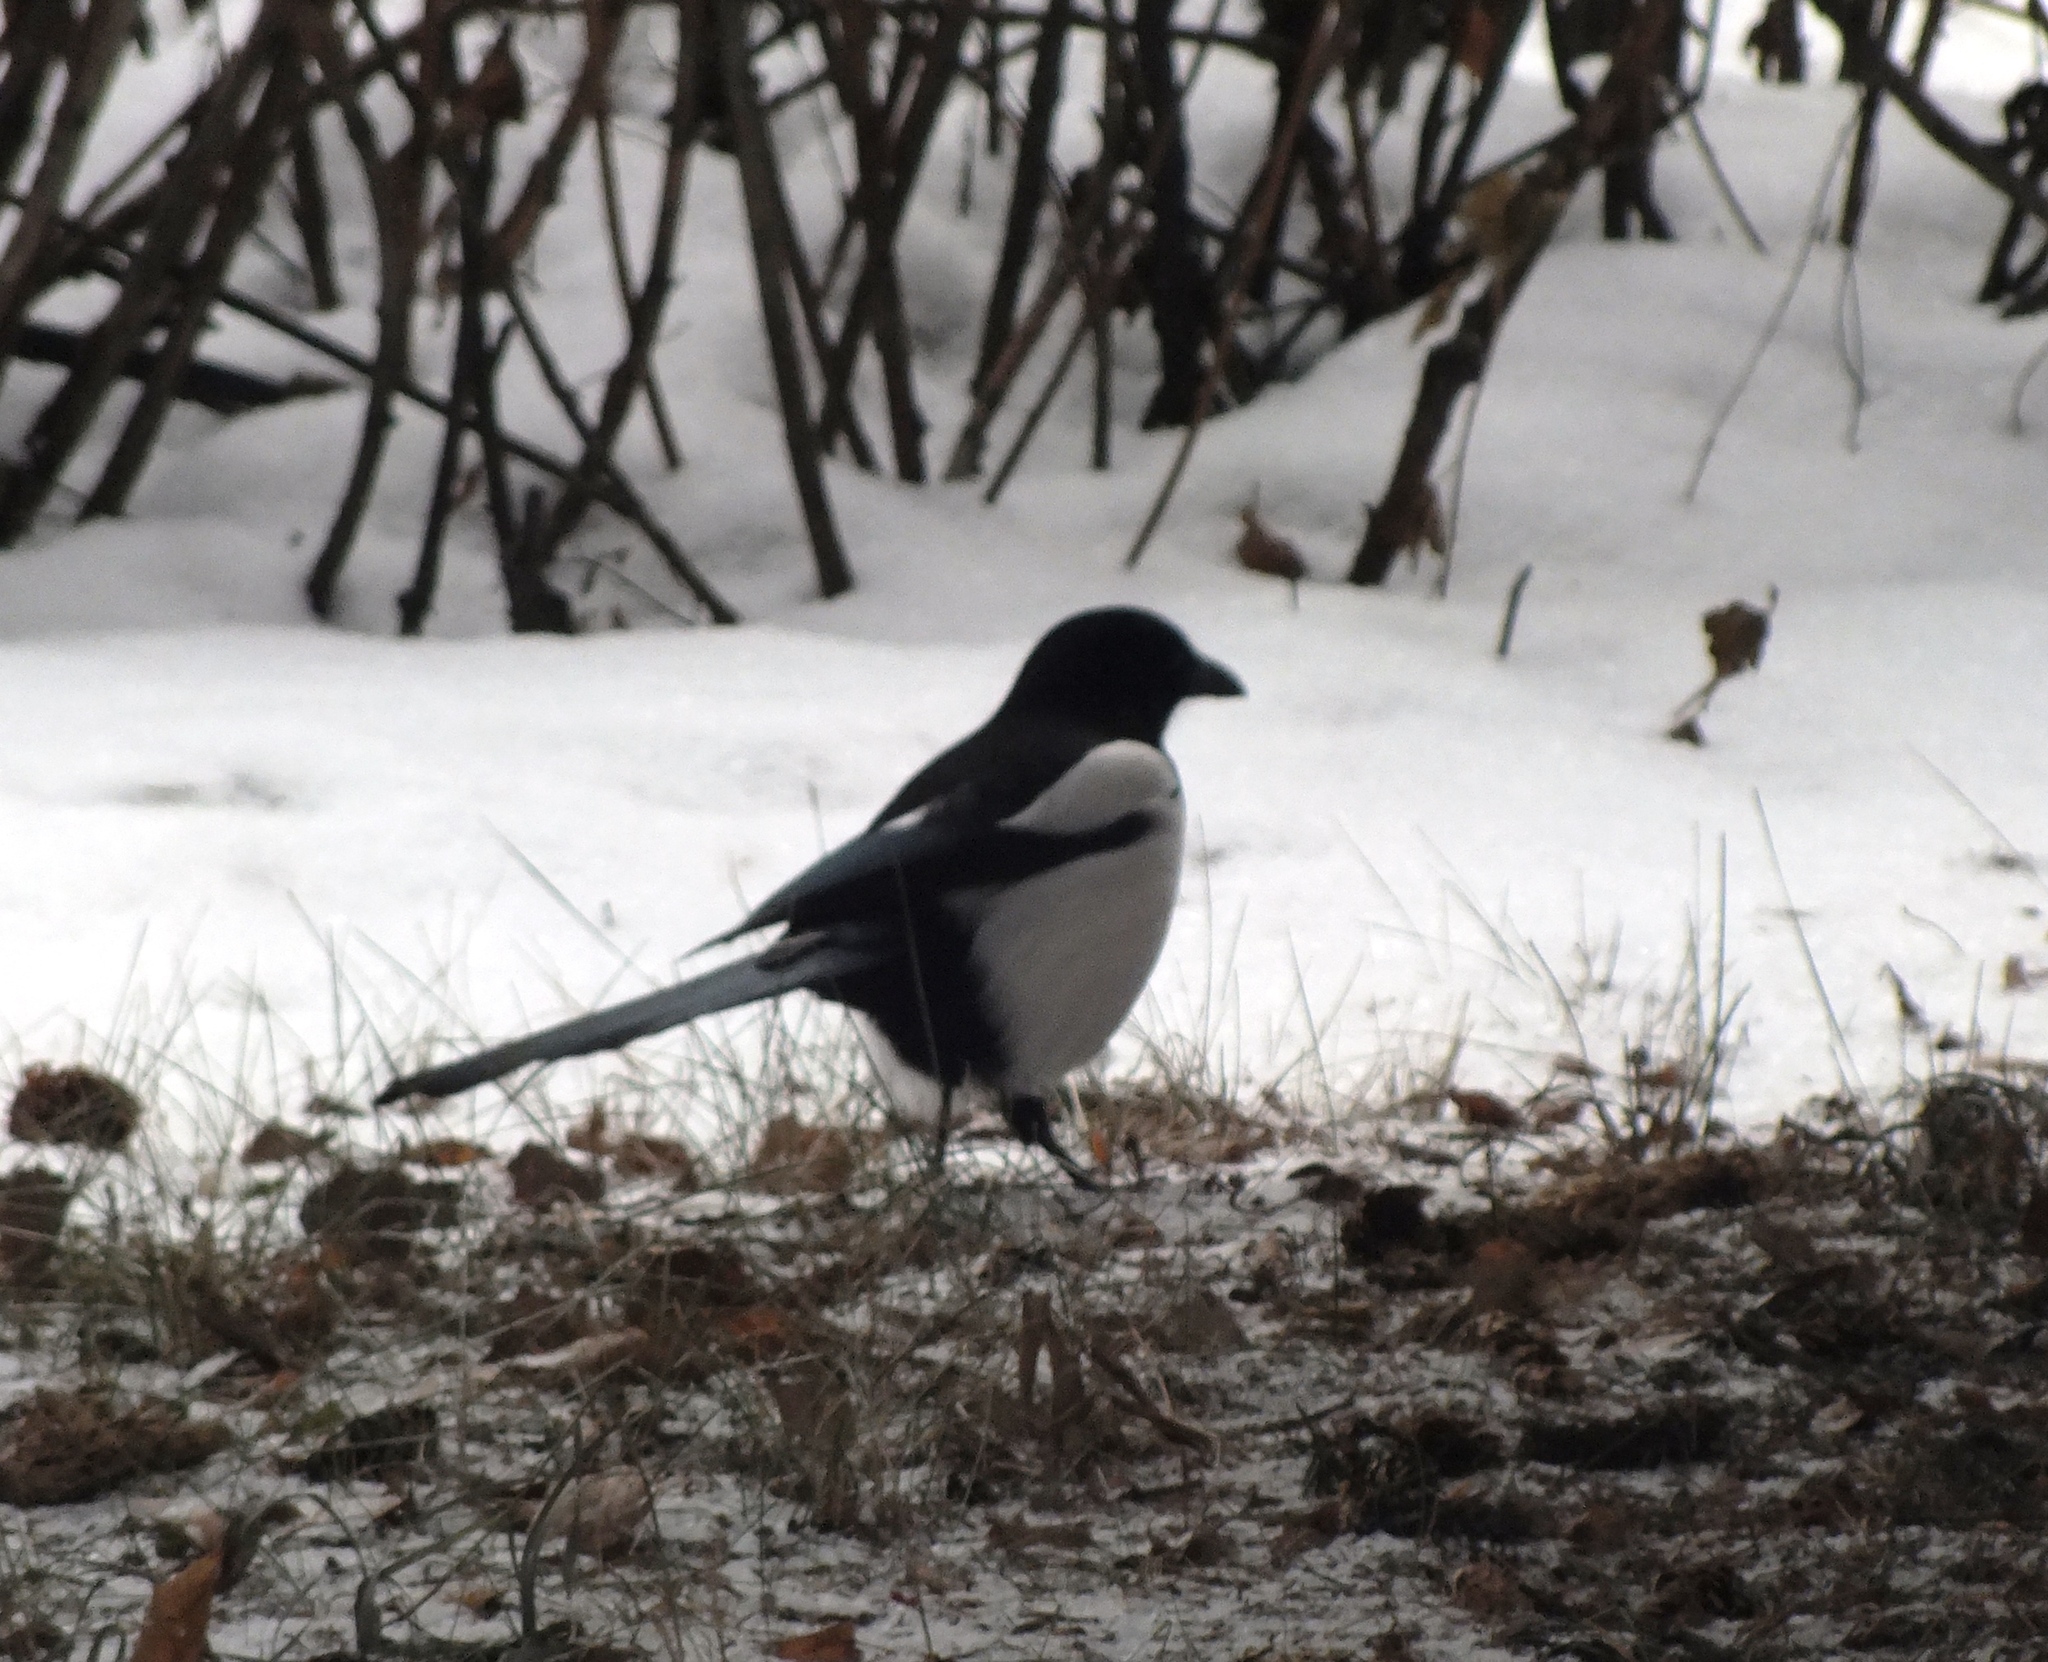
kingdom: Animalia
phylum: Chordata
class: Aves
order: Passeriformes
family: Corvidae
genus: Pica
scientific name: Pica pica
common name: Eurasian magpie
